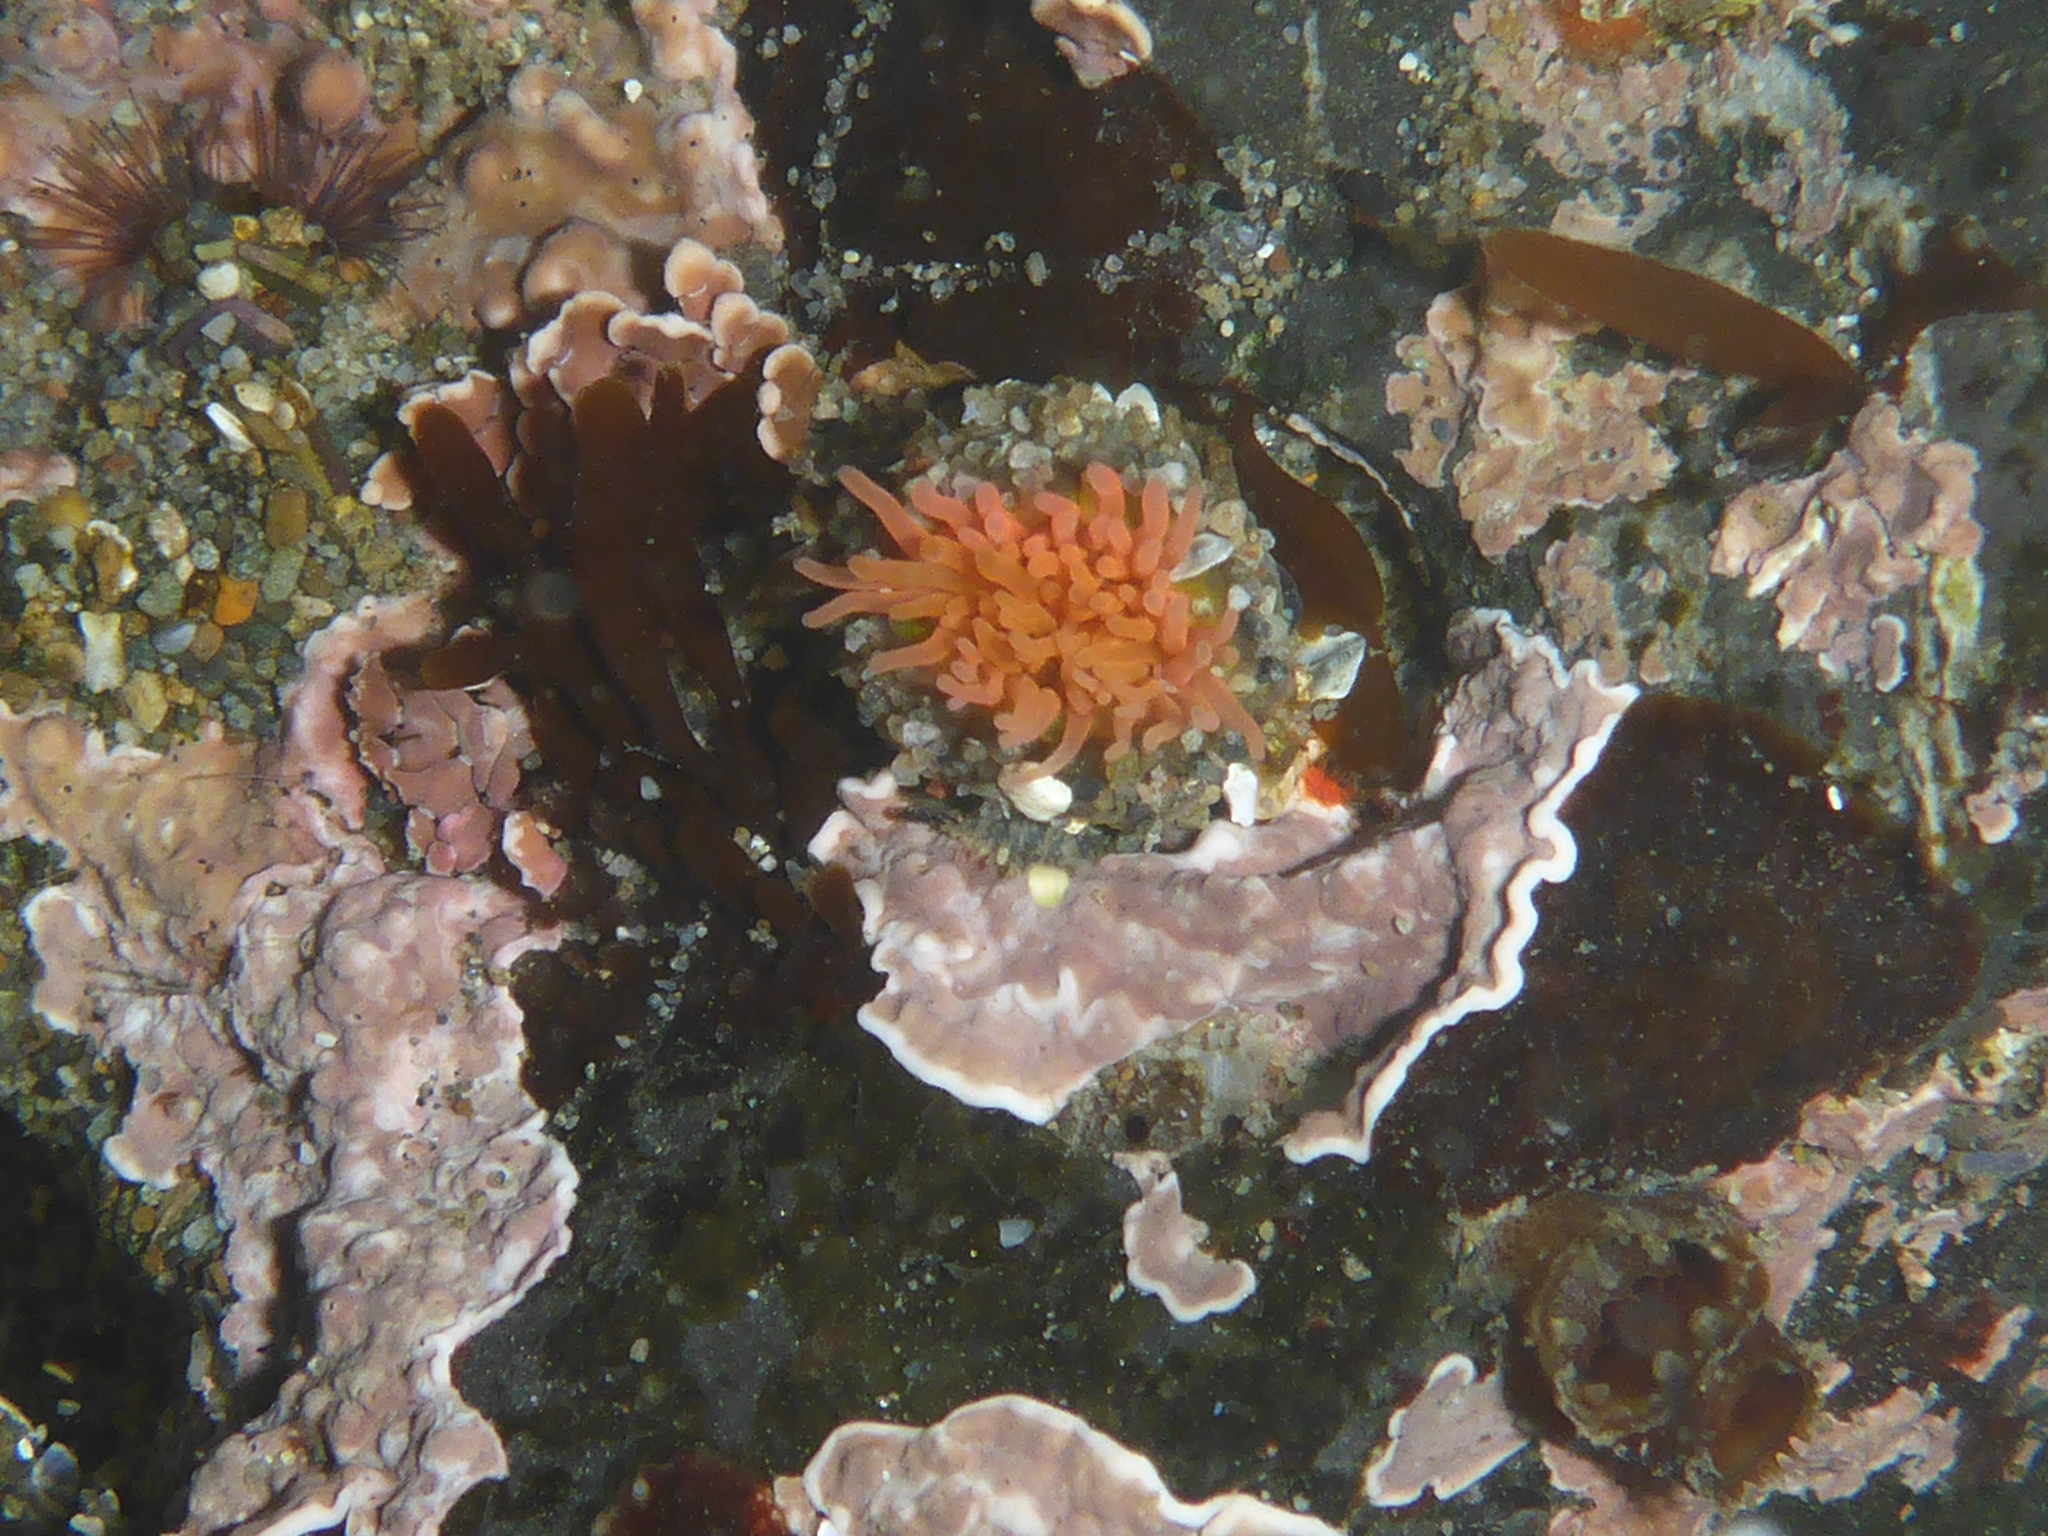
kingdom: Animalia
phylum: Cnidaria
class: Anthozoa
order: Actiniaria
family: Actiniidae
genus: Anthopleura
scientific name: Anthopleura artemisia
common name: Buried sea anemone
